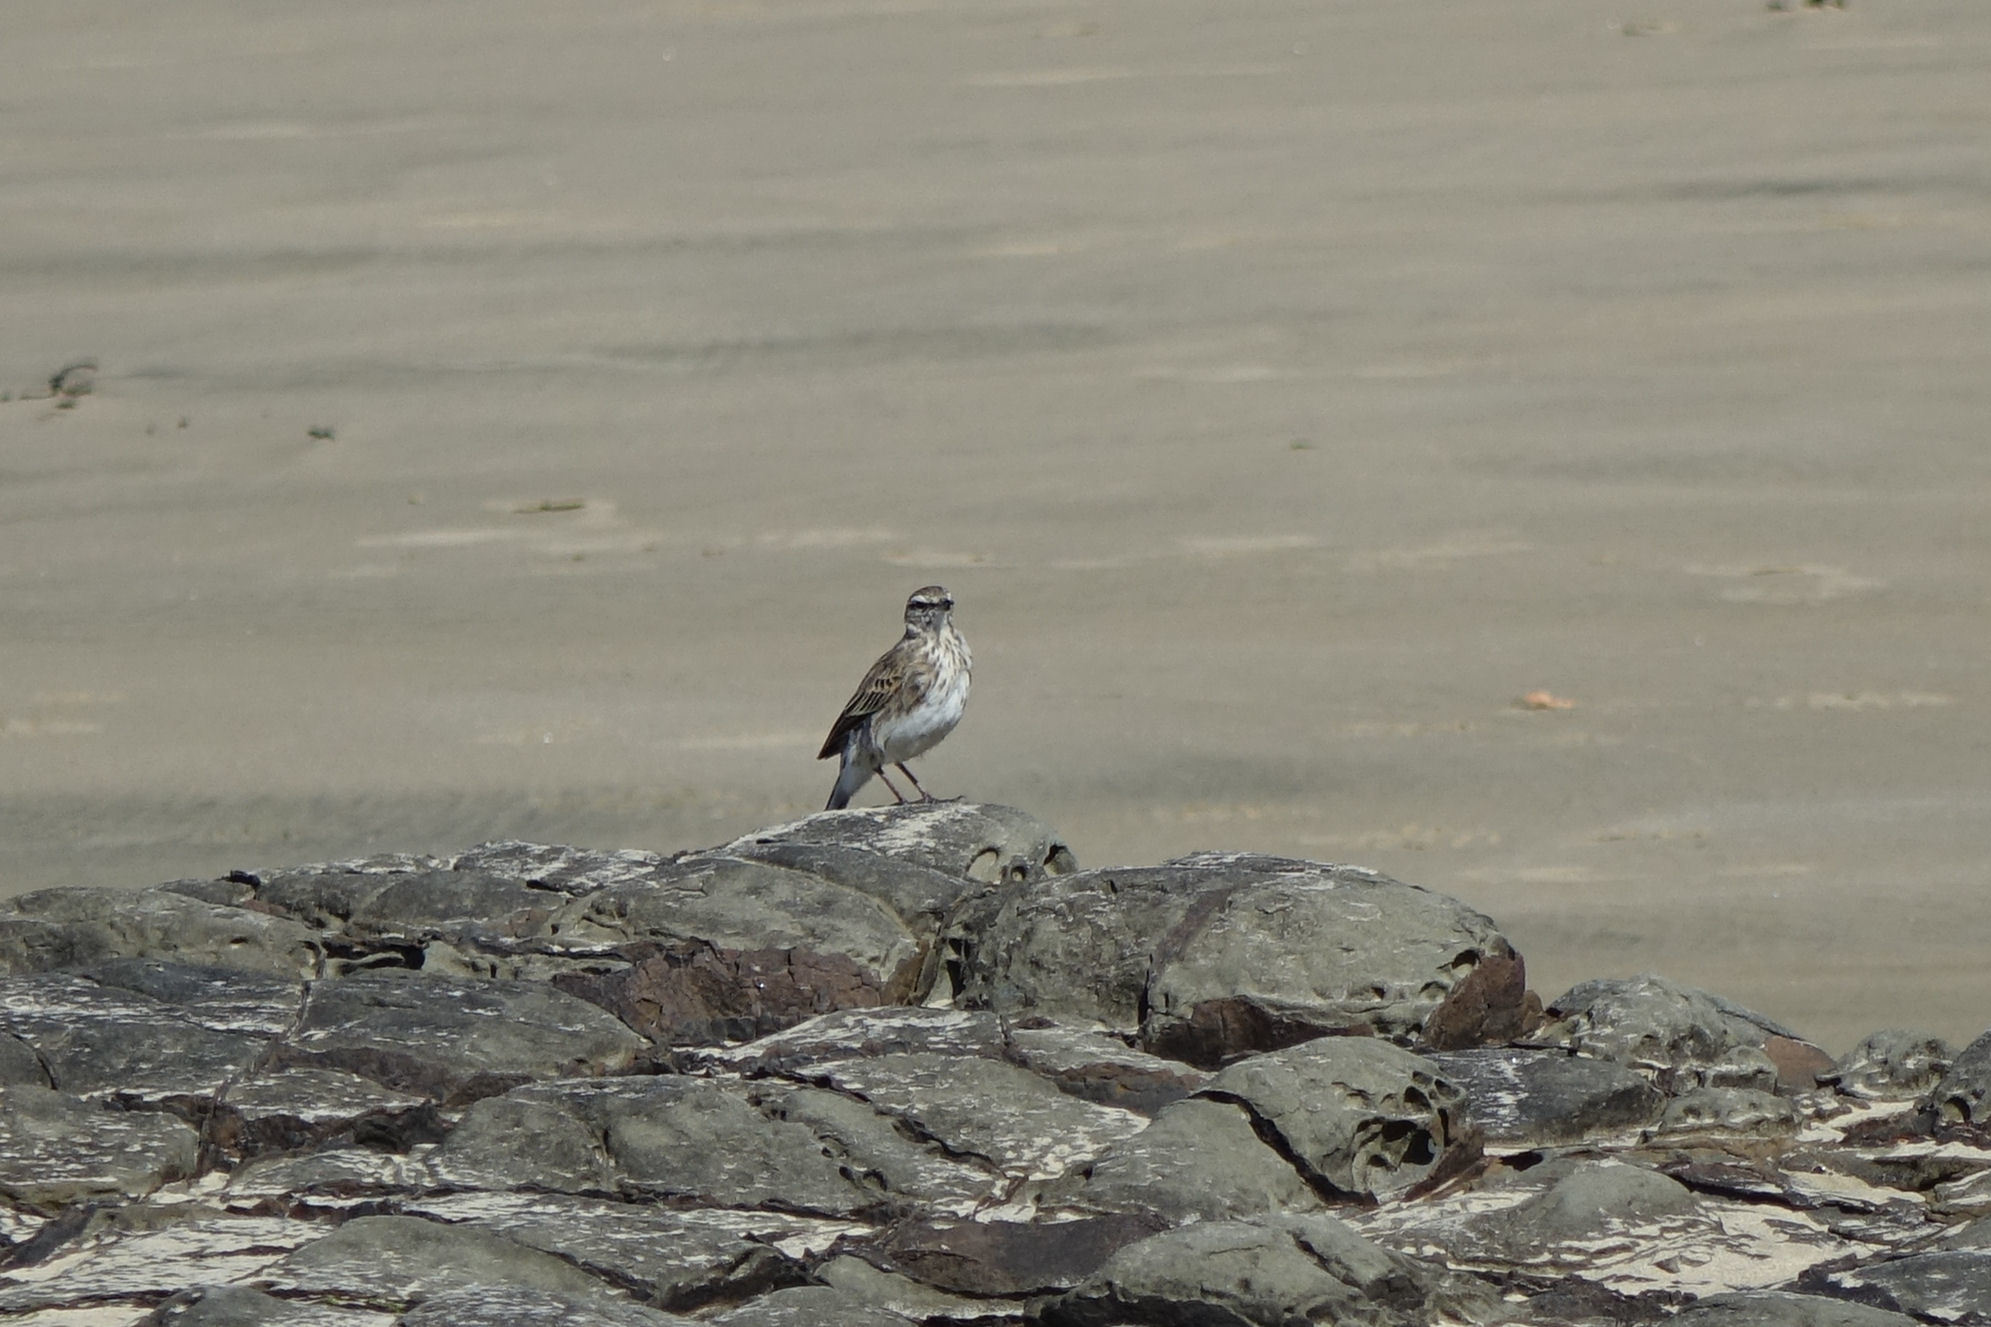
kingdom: Animalia
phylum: Chordata
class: Aves
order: Passeriformes
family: Motacillidae
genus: Anthus
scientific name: Anthus novaeseelandiae
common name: New zealand pipit
